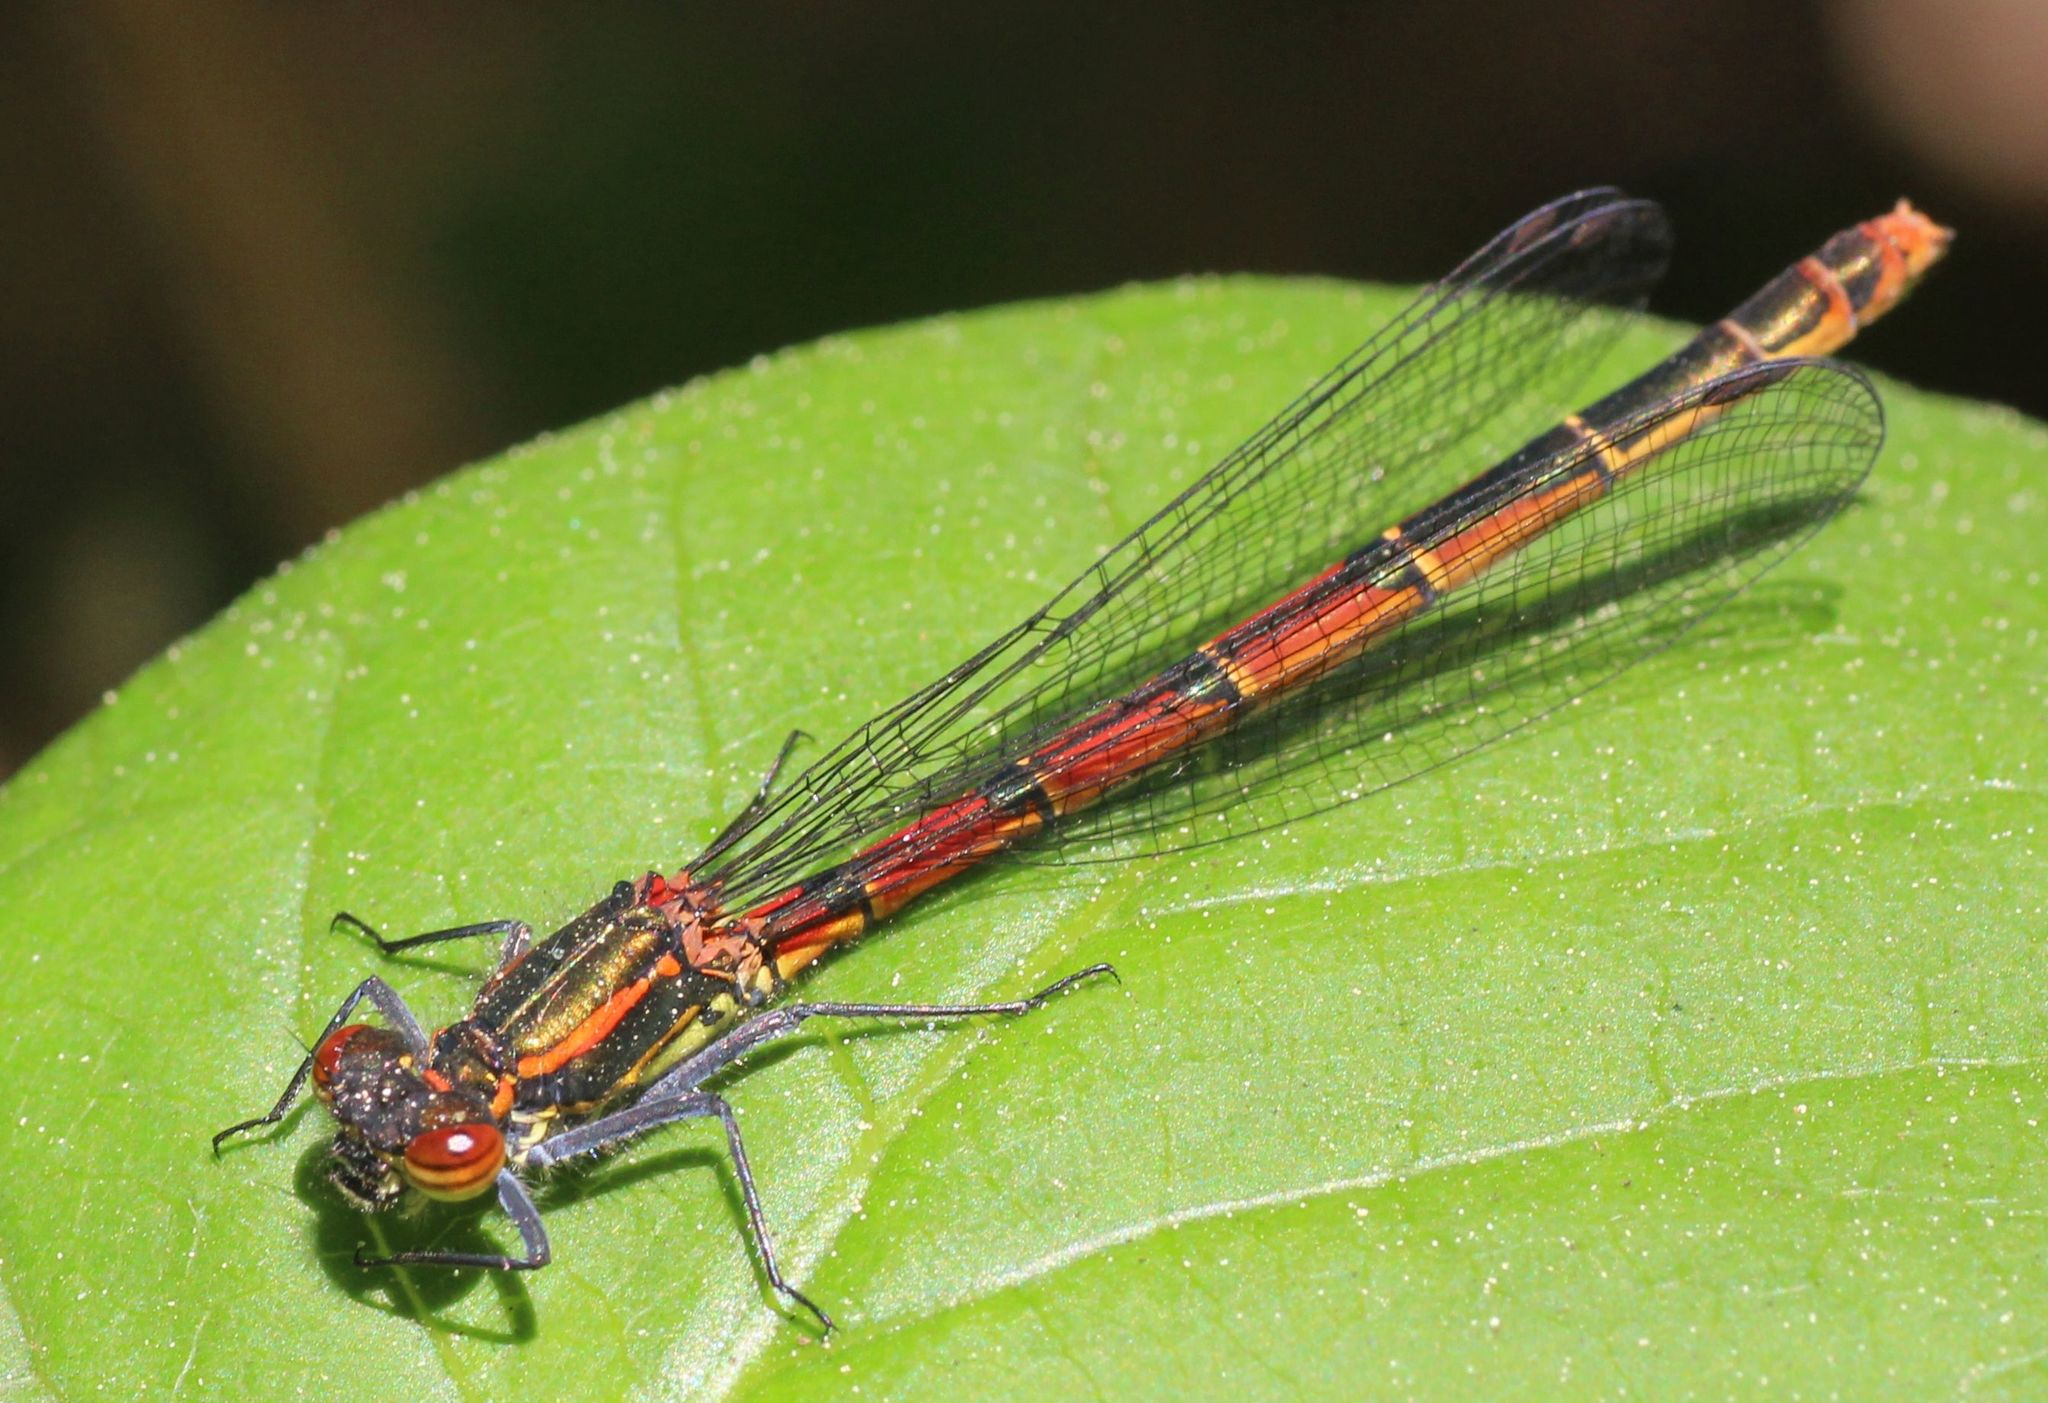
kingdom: Animalia
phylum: Arthropoda
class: Insecta
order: Odonata
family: Coenagrionidae
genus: Pyrrhosoma
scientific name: Pyrrhosoma nymphula
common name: Large red damsel
